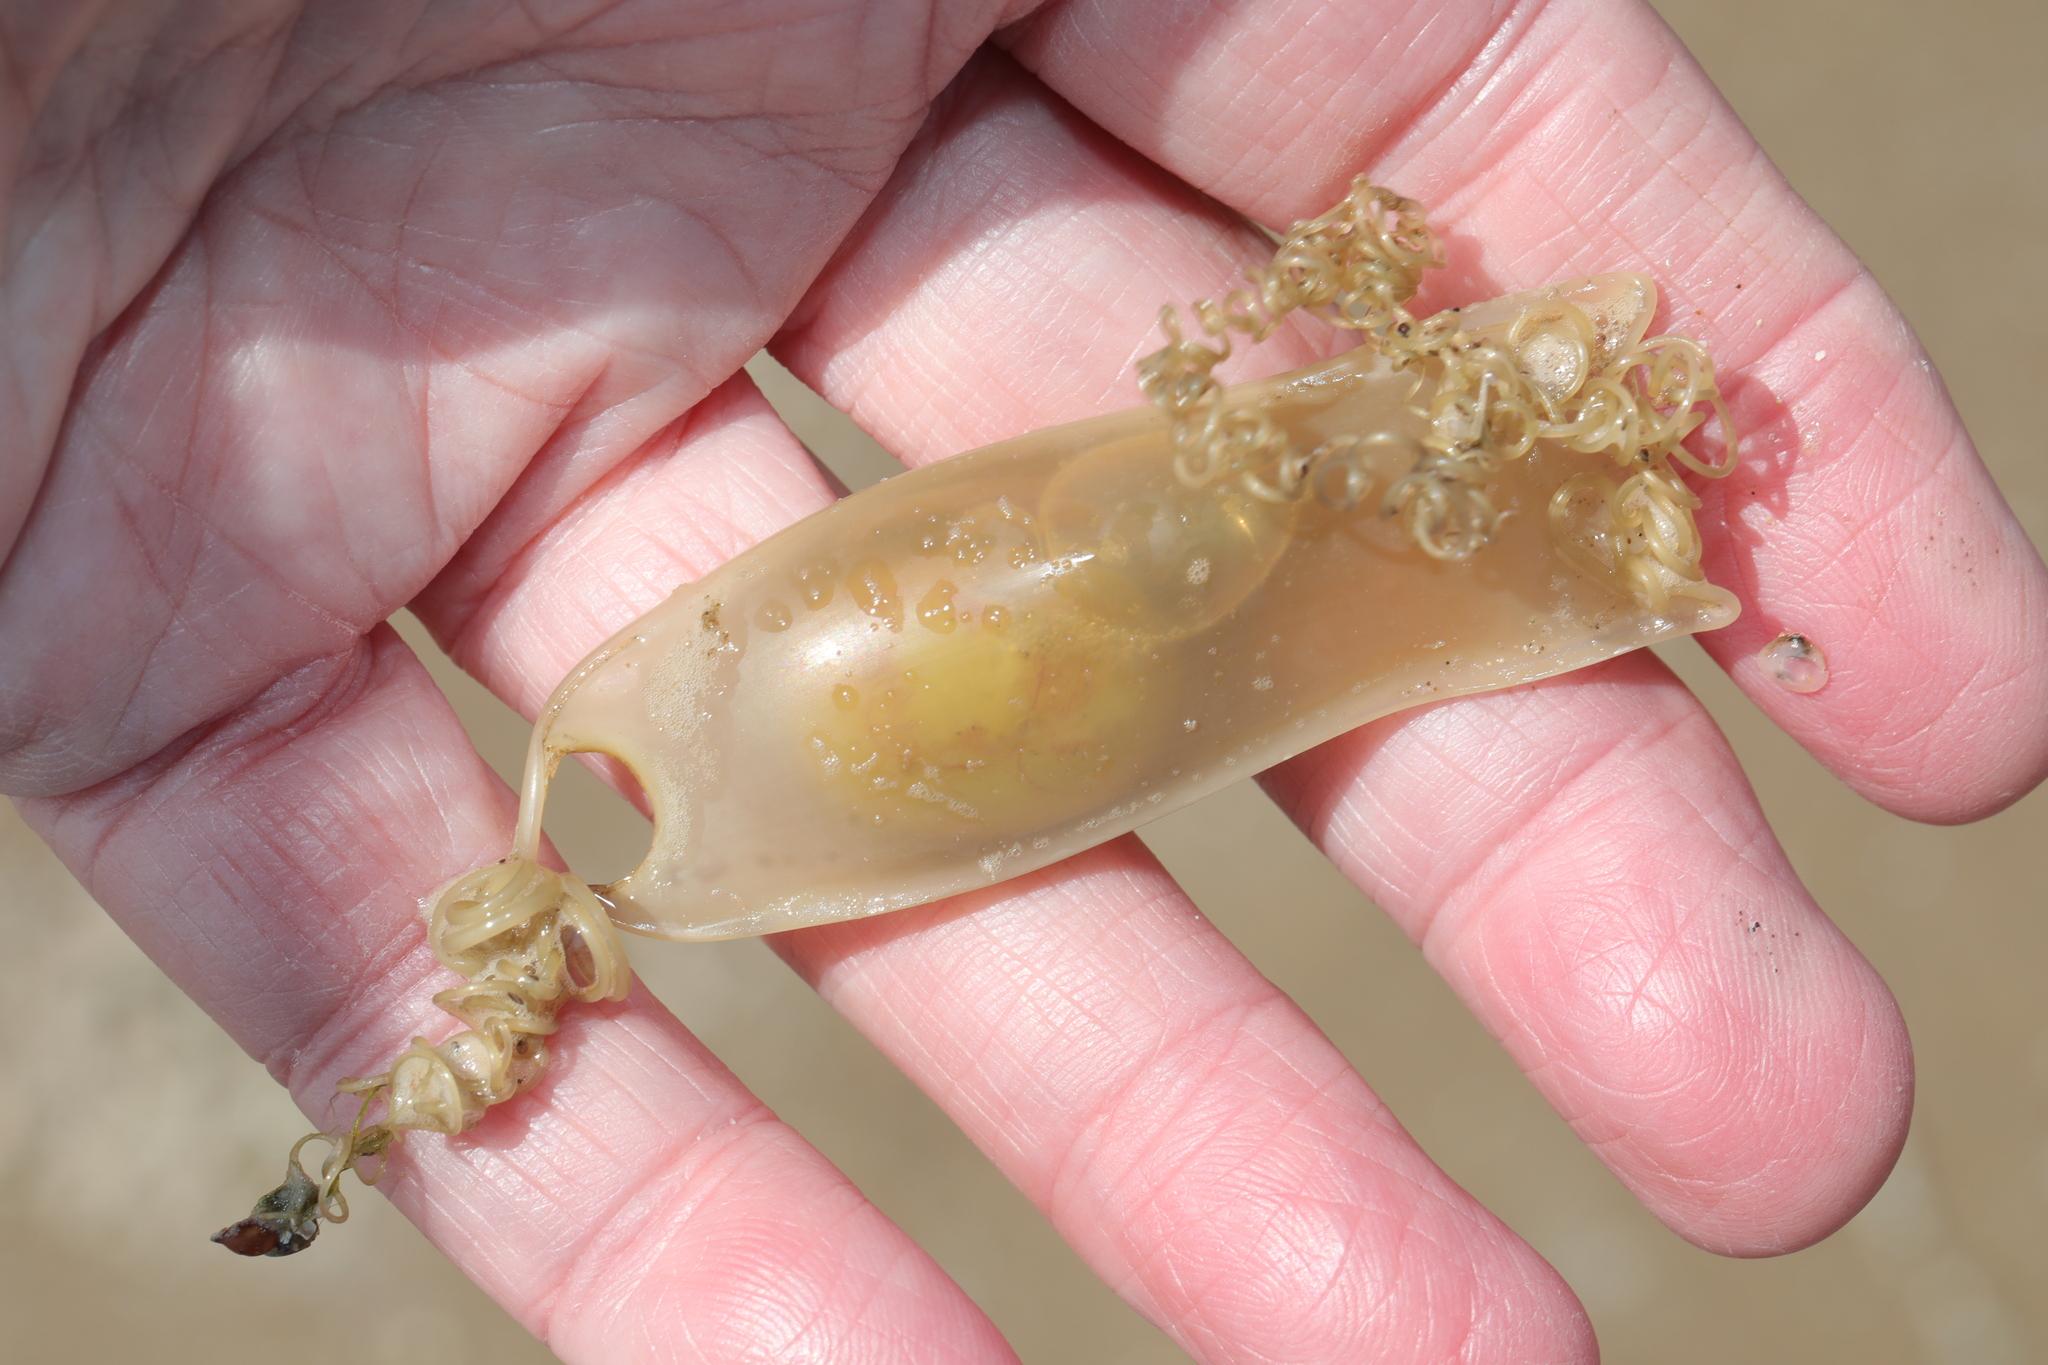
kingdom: Animalia
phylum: Chordata
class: Elasmobranchii
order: Carcharhiniformes
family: Scyliorhinidae
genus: Scyliorhinus
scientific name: Scyliorhinus canicula
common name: Lesser spotted dogfish
